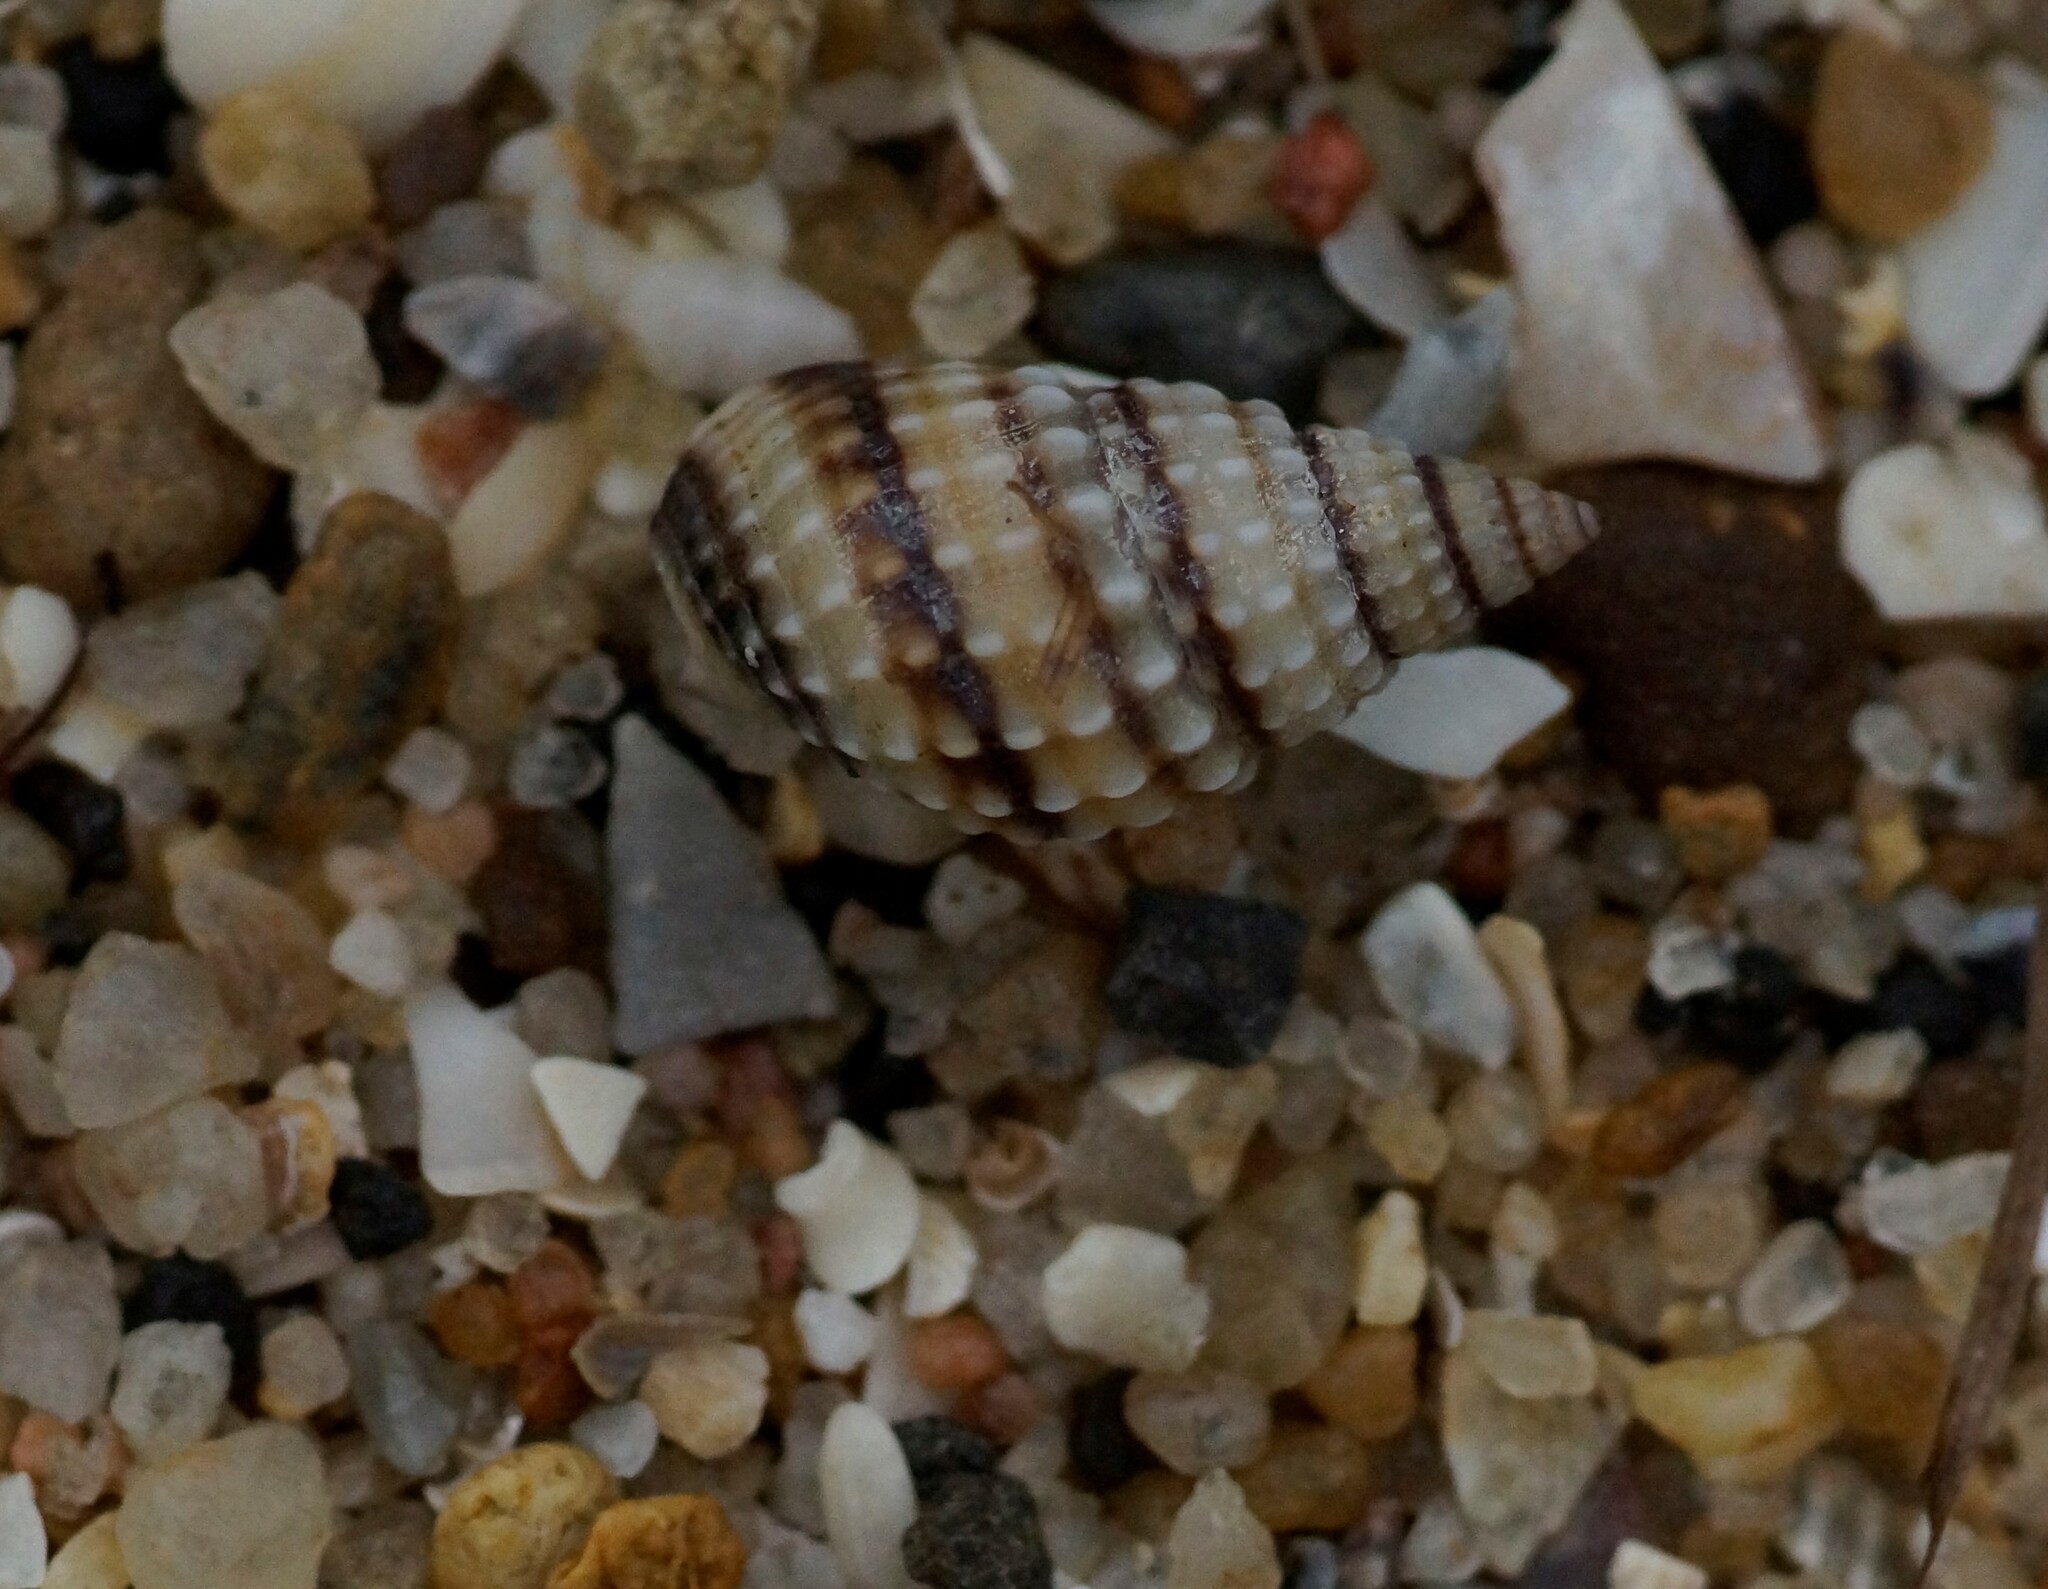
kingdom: Animalia
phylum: Mollusca
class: Gastropoda
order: Neogastropoda
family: Nassariidae
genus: Nassarius
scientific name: Nassarius pyrrhus
